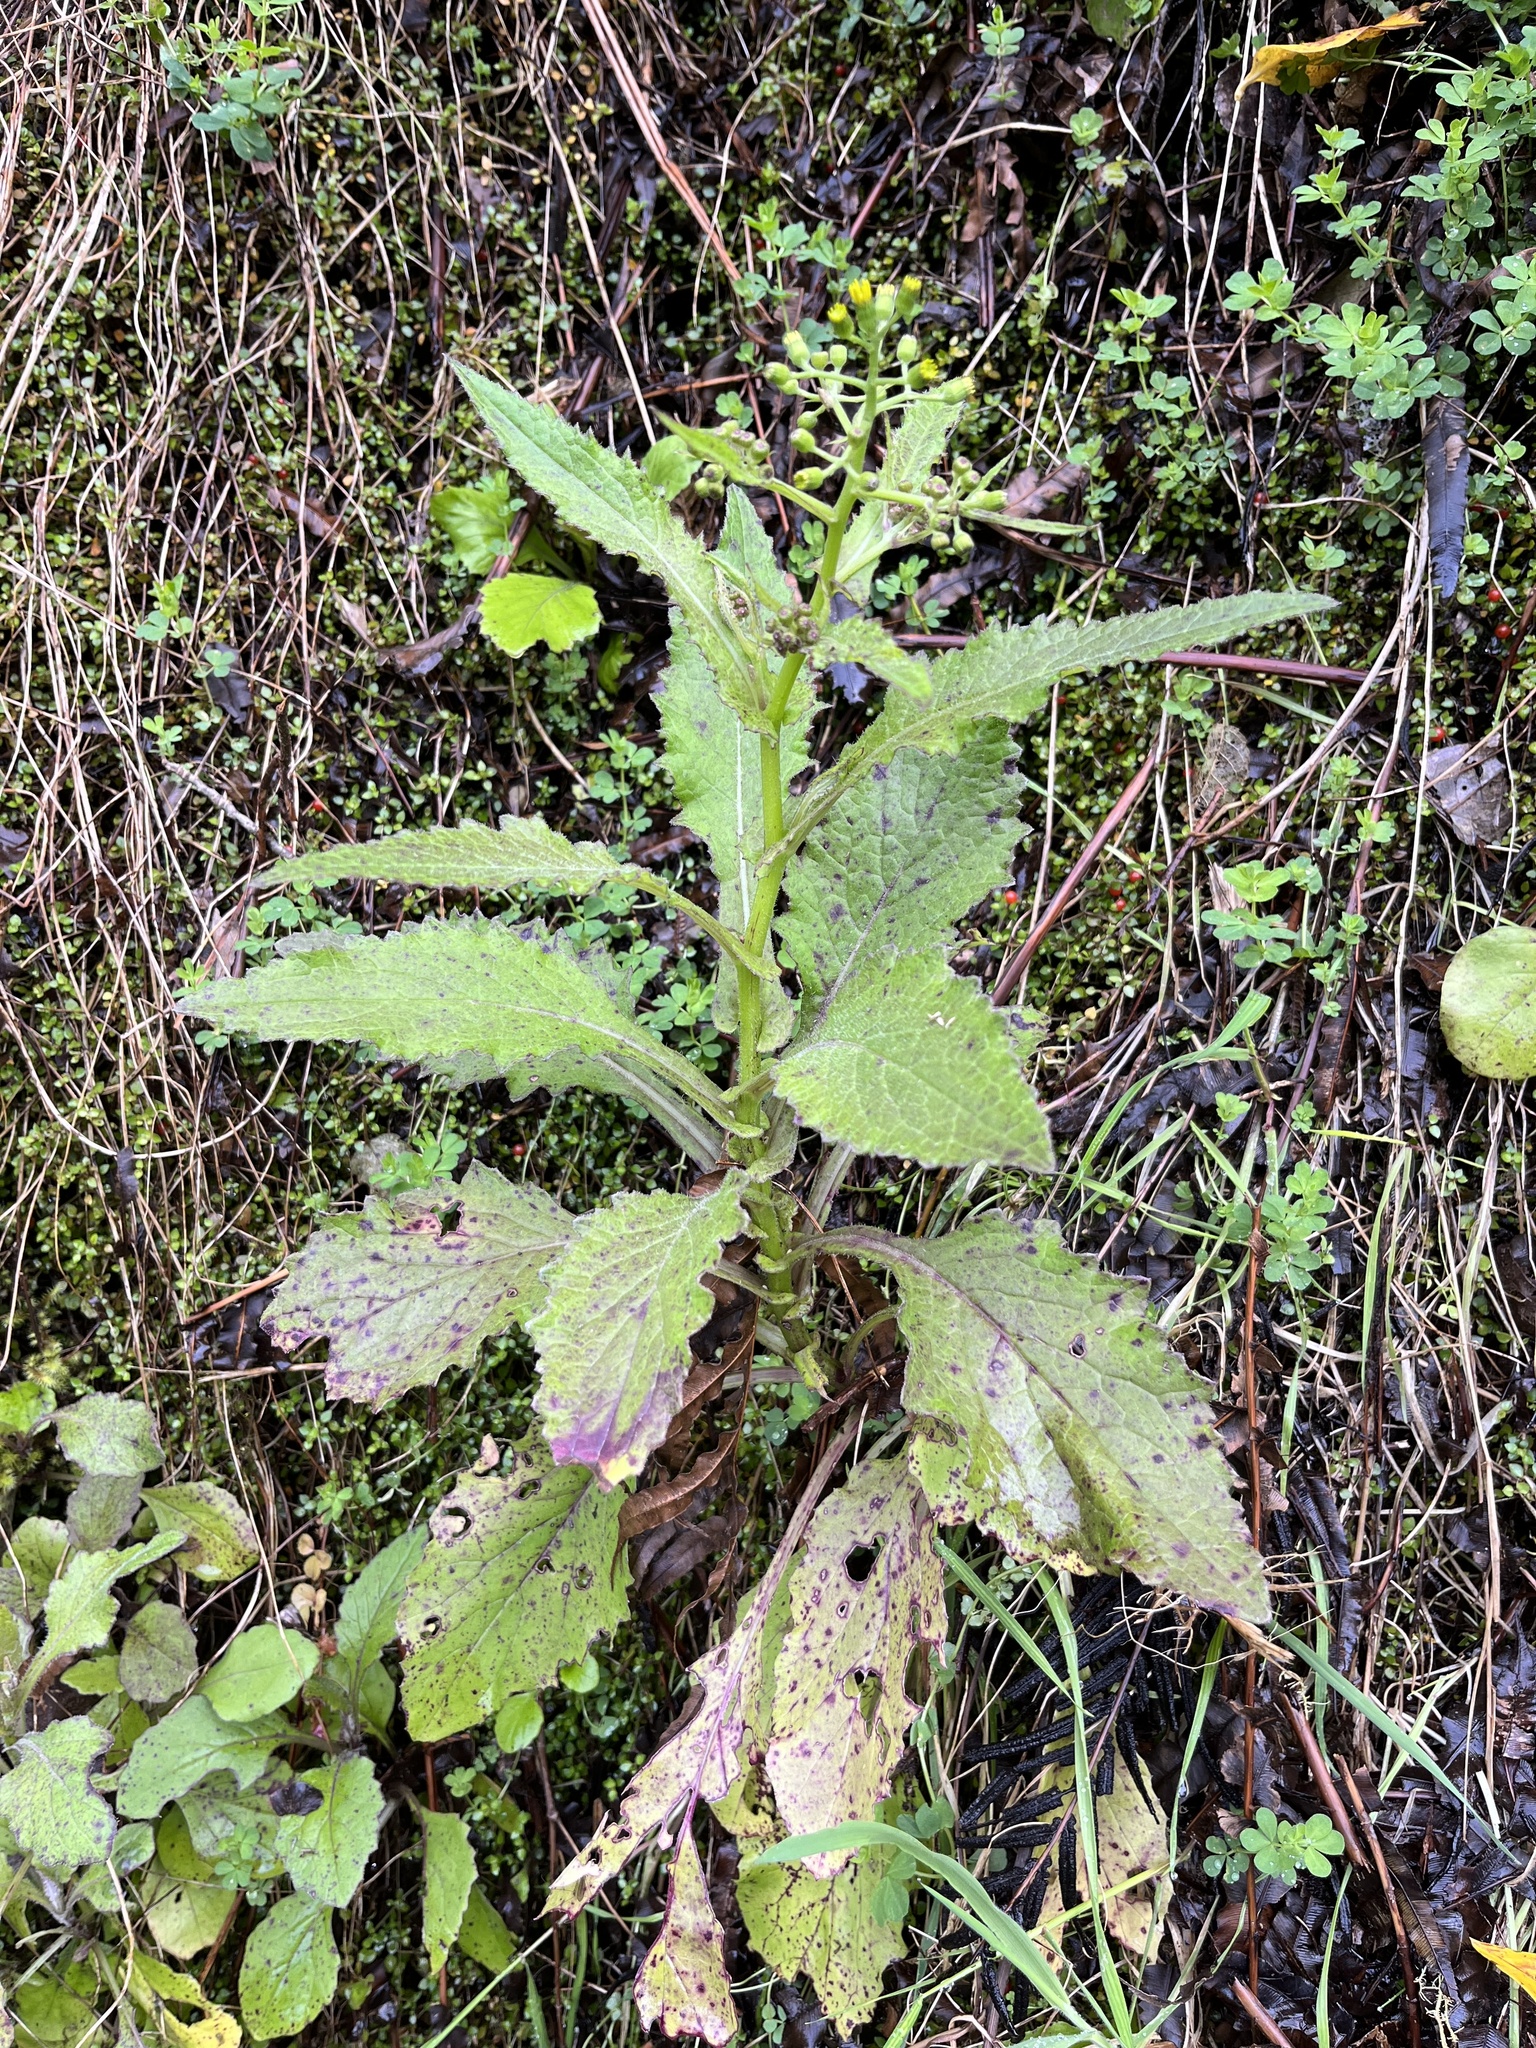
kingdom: Plantae
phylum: Tracheophyta
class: Magnoliopsida
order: Asterales
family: Asteraceae
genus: Senecio
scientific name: Senecio rufiglandulosus
